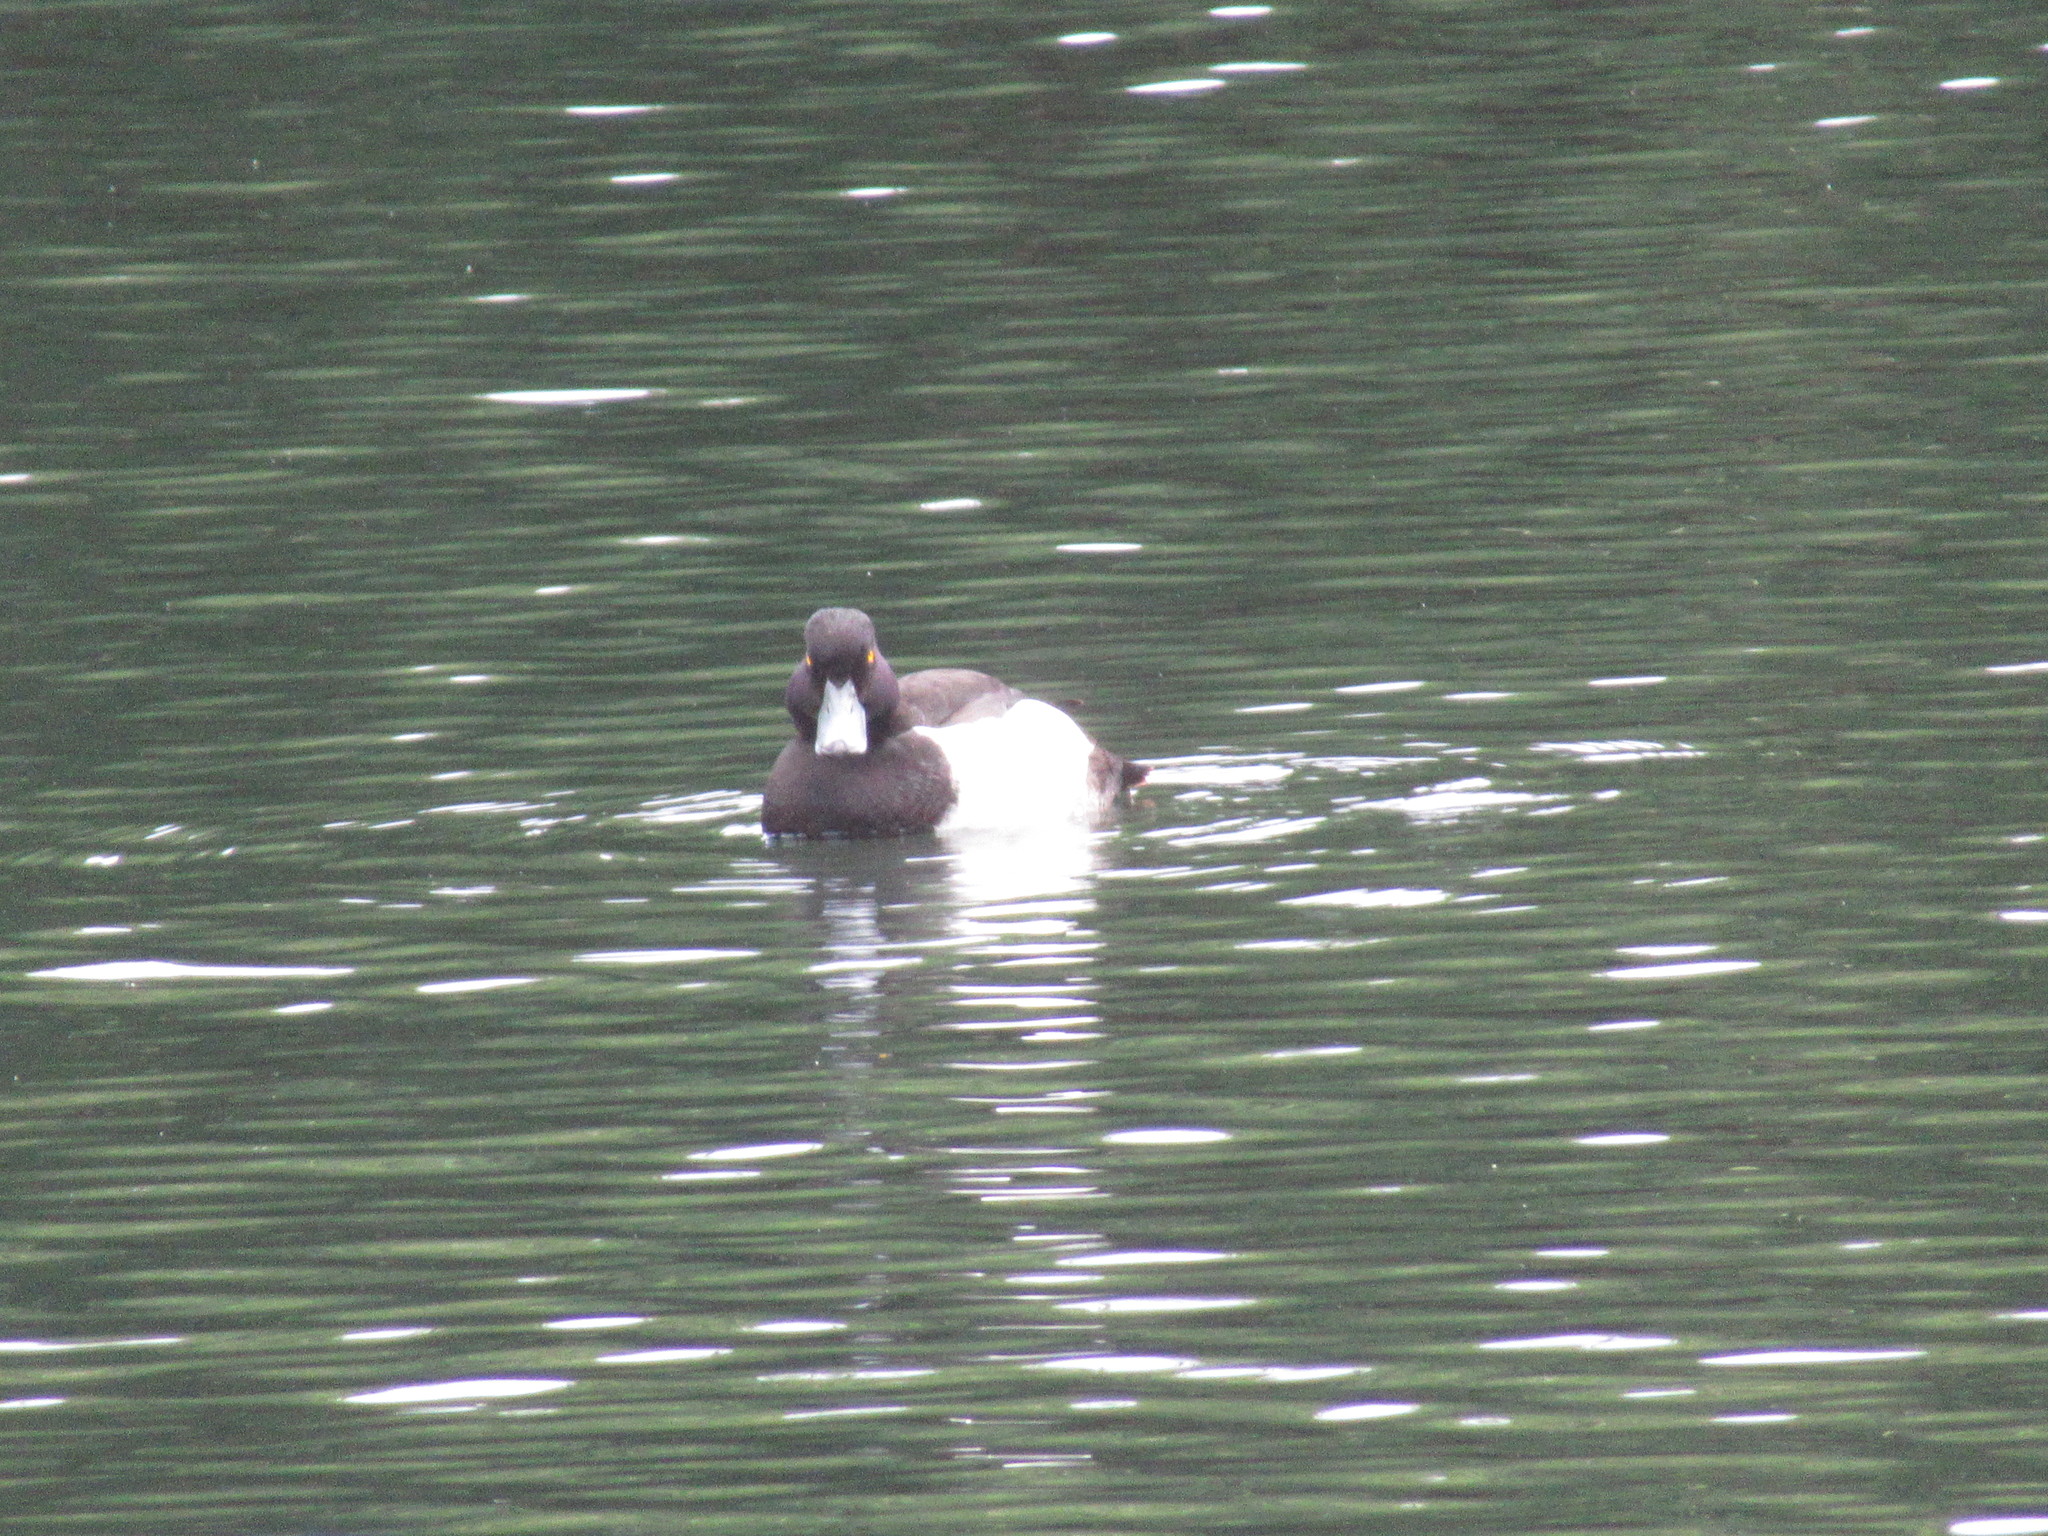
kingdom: Animalia
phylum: Chordata
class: Aves
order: Anseriformes
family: Anatidae
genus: Aythya
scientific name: Aythya fuligula
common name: Tufted duck
